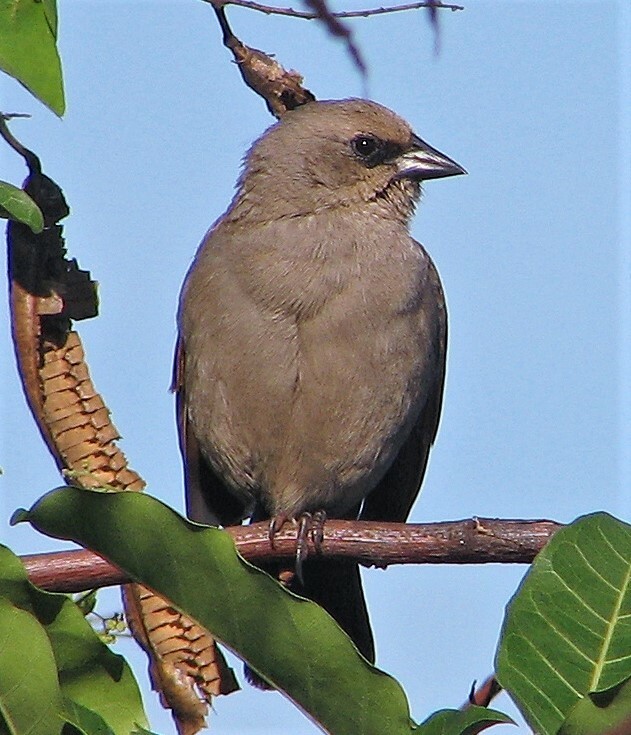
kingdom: Animalia
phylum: Chordata
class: Aves
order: Passeriformes
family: Icteridae
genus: Agelaioides
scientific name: Agelaioides badius
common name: Baywing
